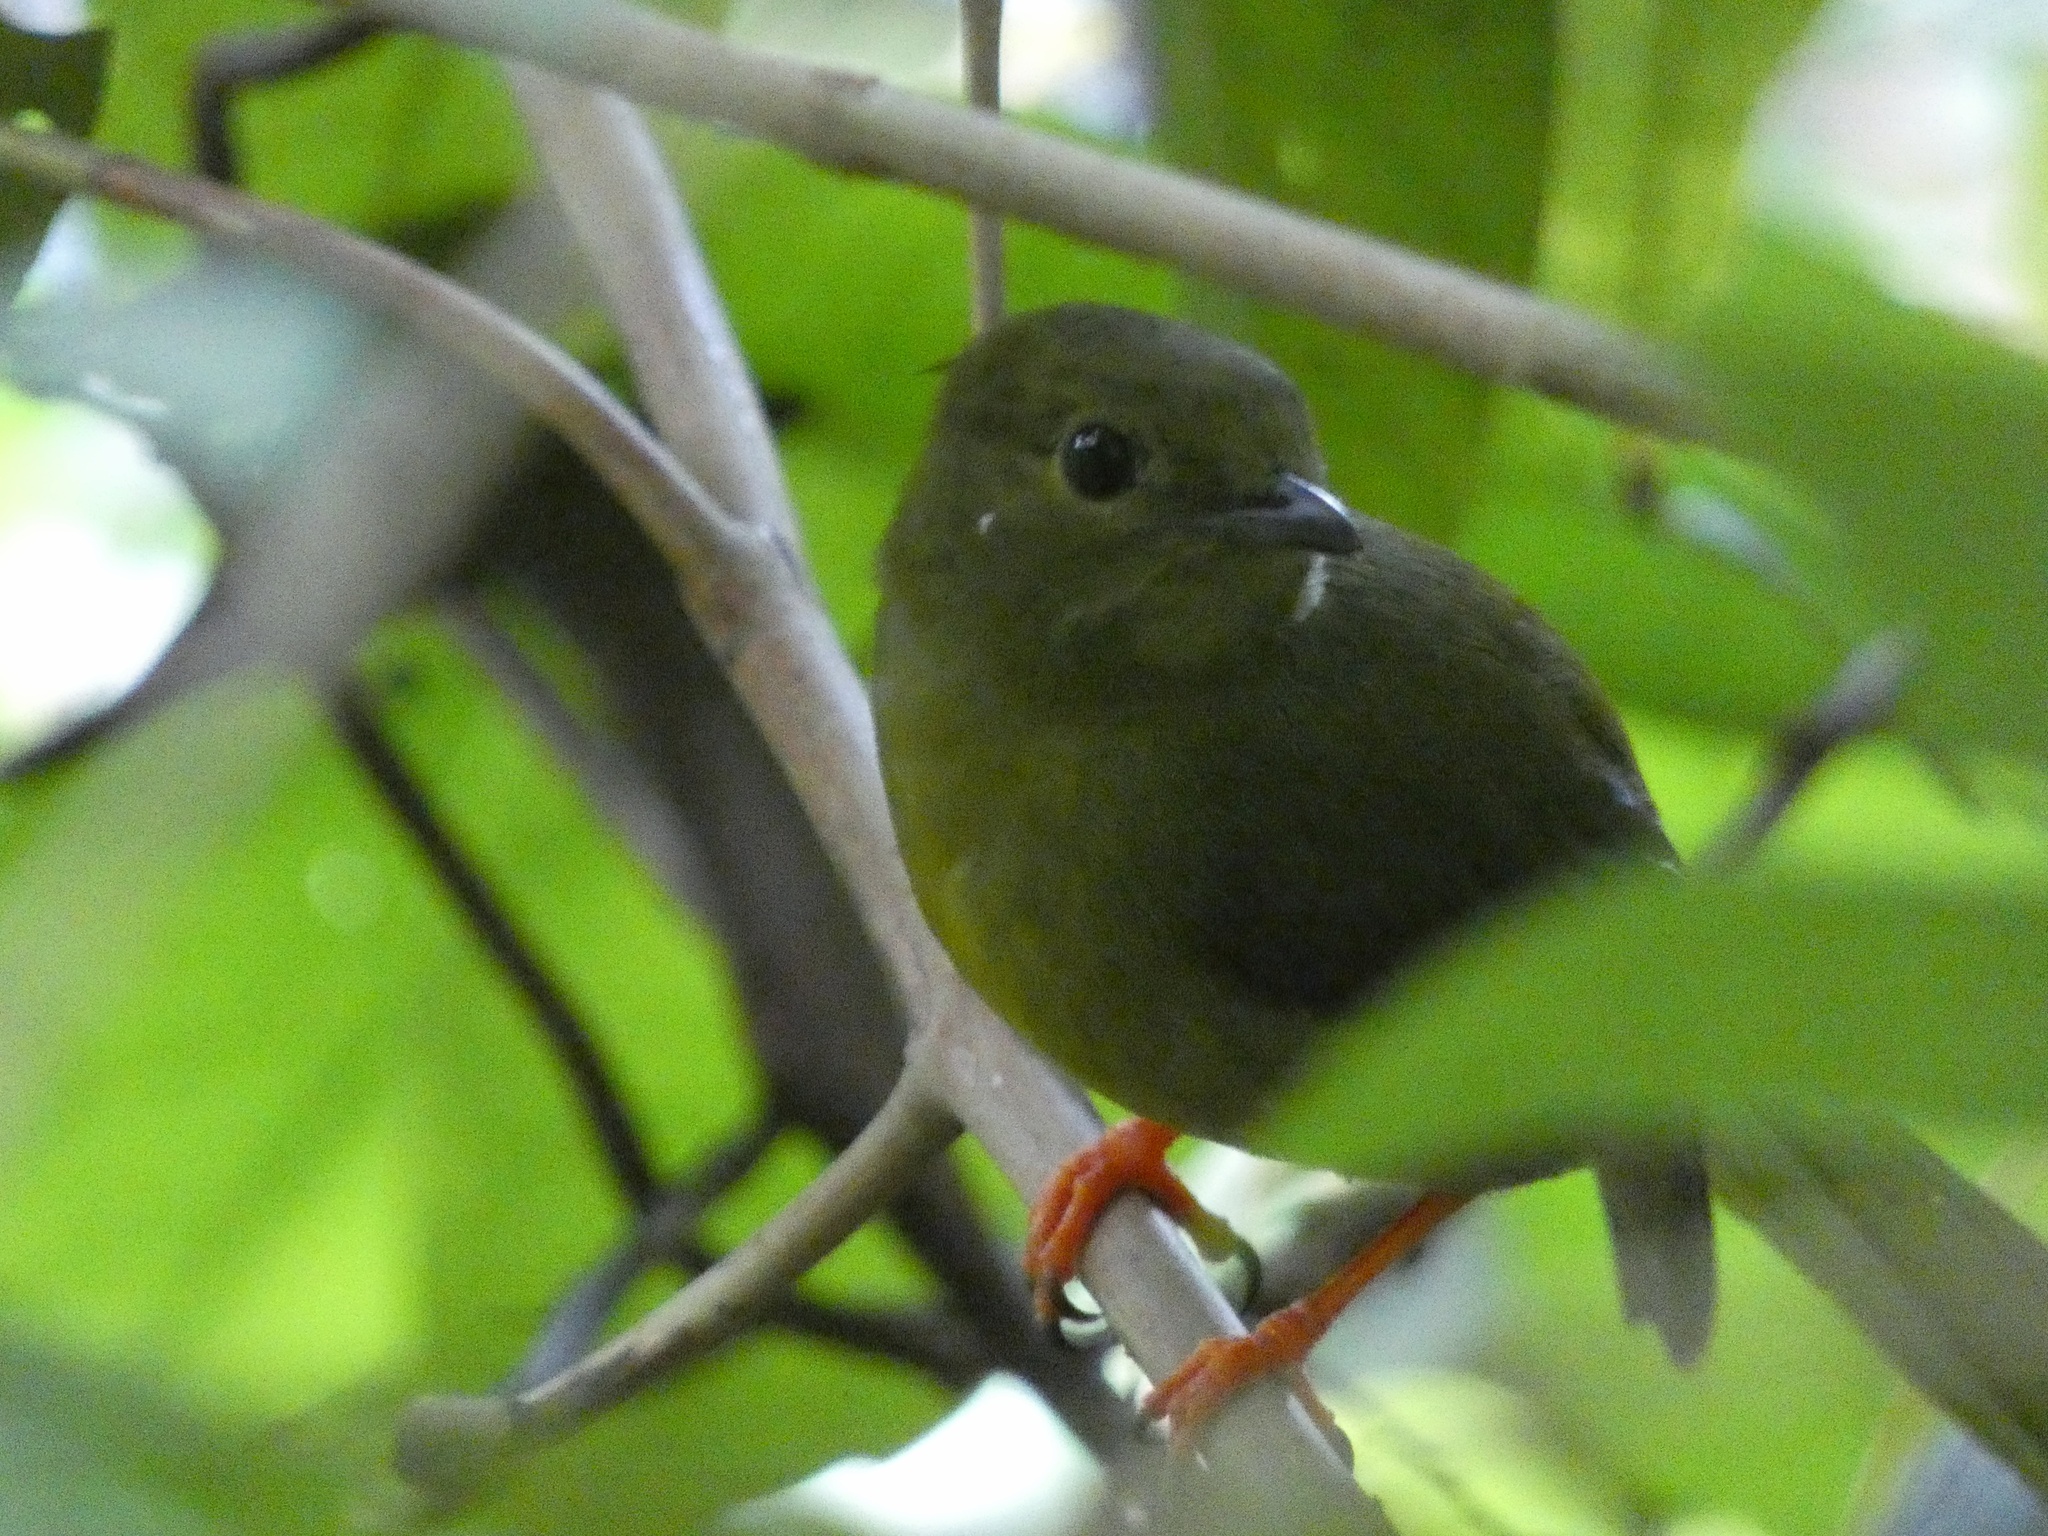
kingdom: Animalia
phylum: Chordata
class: Aves
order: Passeriformes
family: Pipridae
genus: Manacus
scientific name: Manacus vitellinus
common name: Golden-collared manakin
